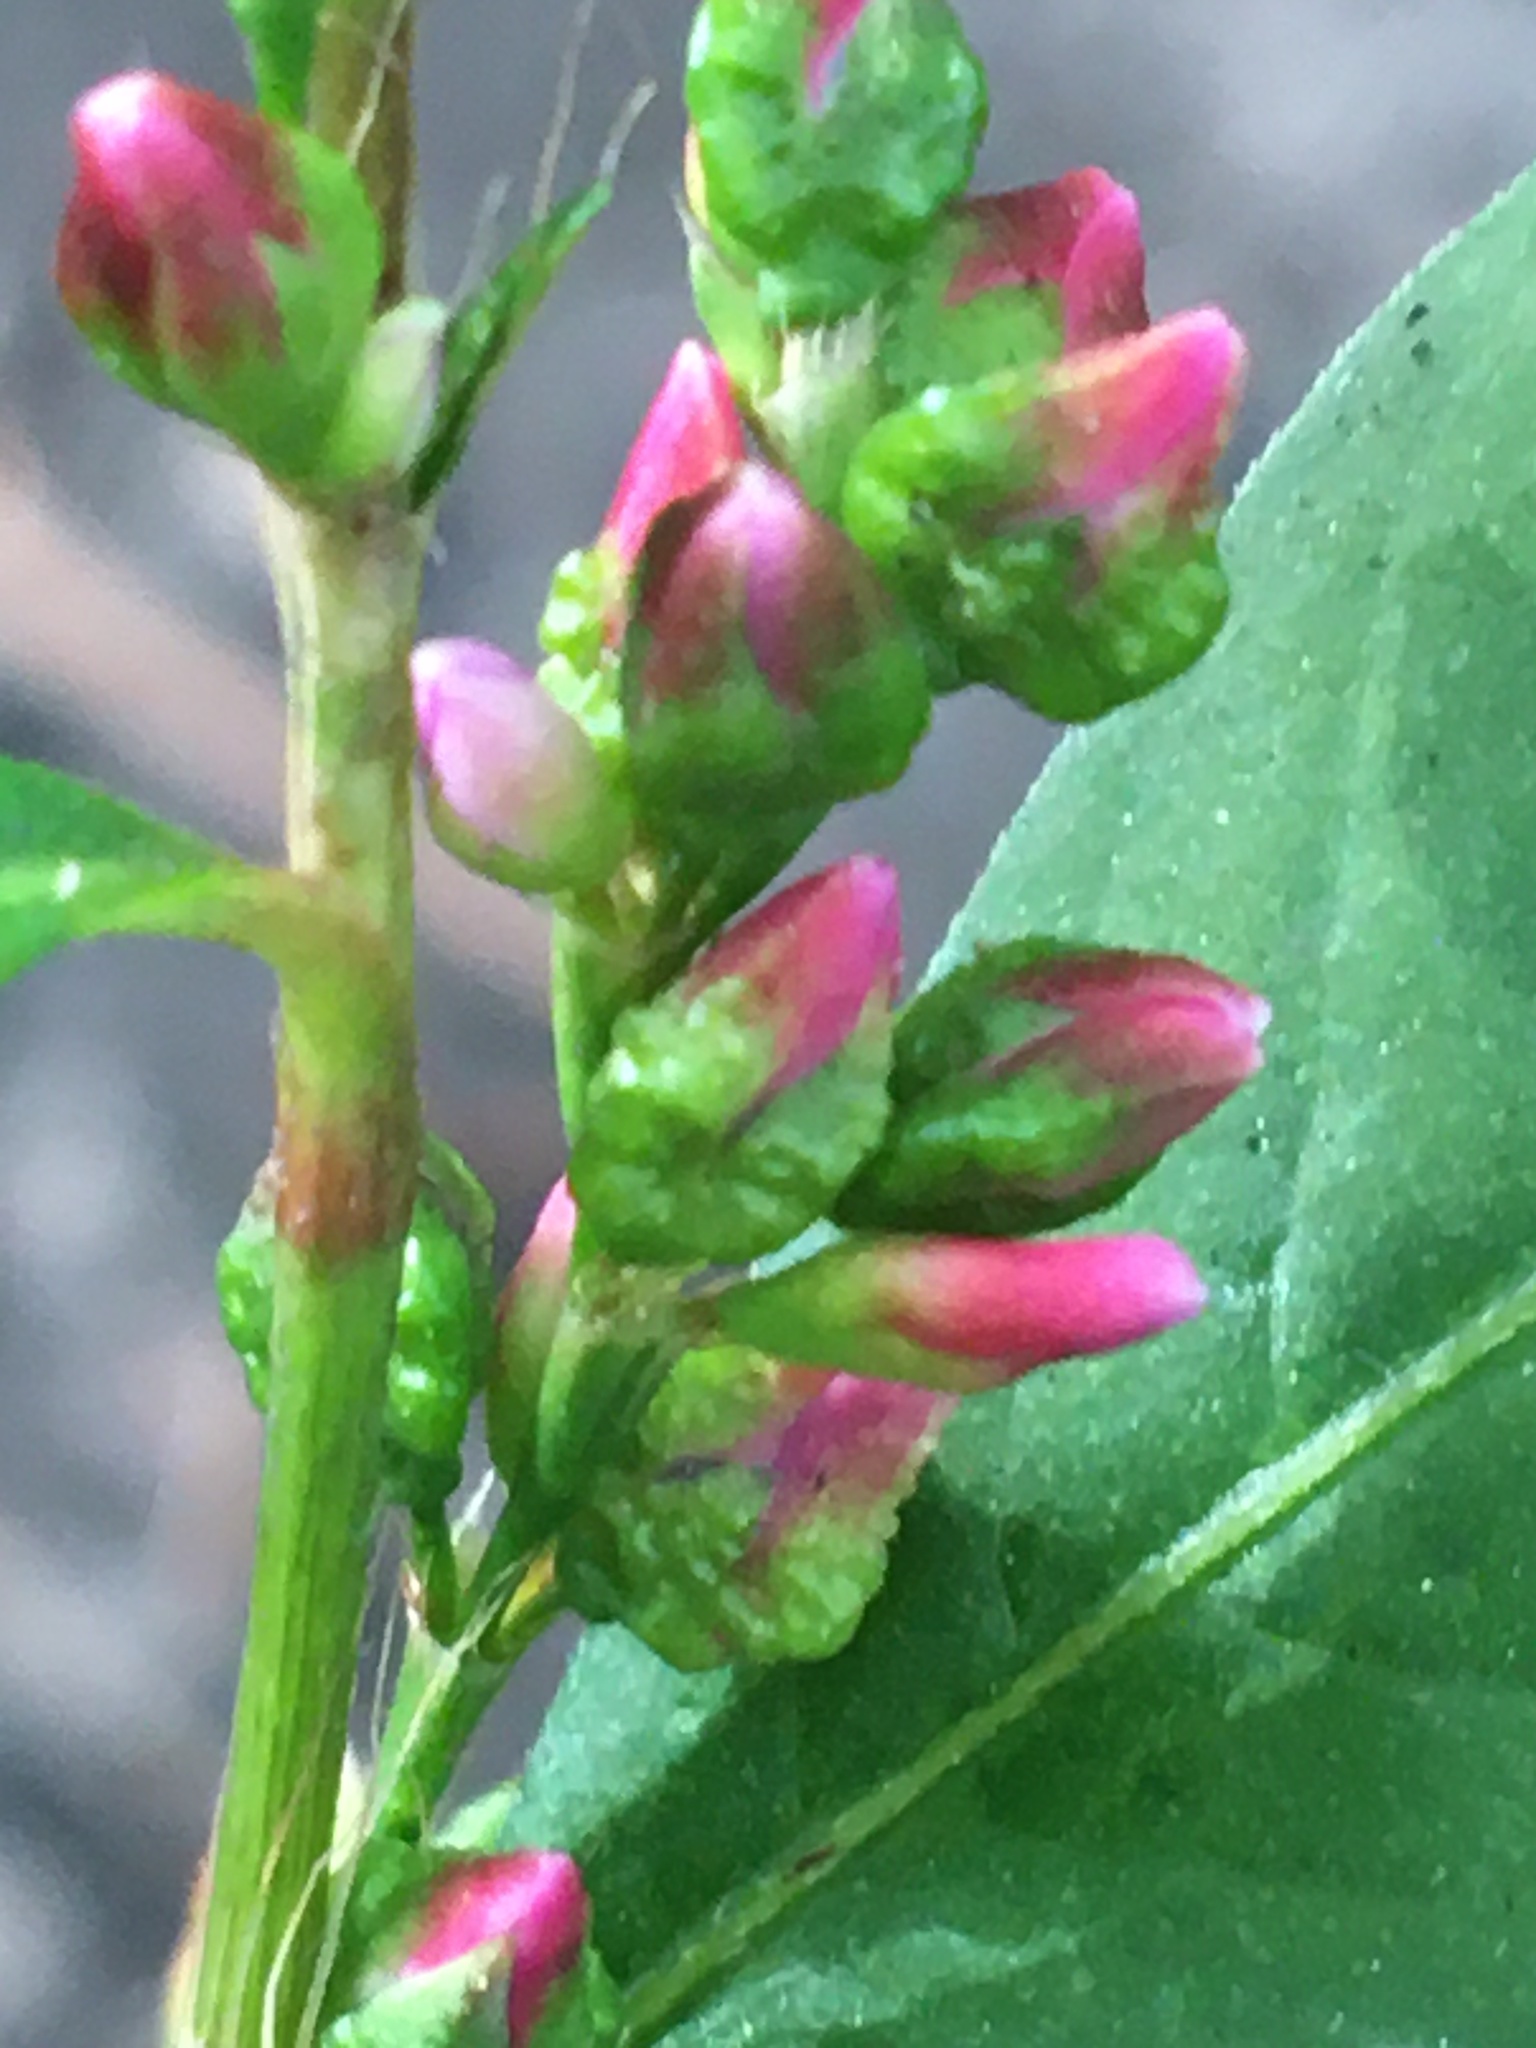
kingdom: Plantae
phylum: Tracheophyta
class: Magnoliopsida
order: Caryophyllales
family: Polygonaceae
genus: Persicaria
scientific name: Persicaria hydropiper
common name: Water-pepper
